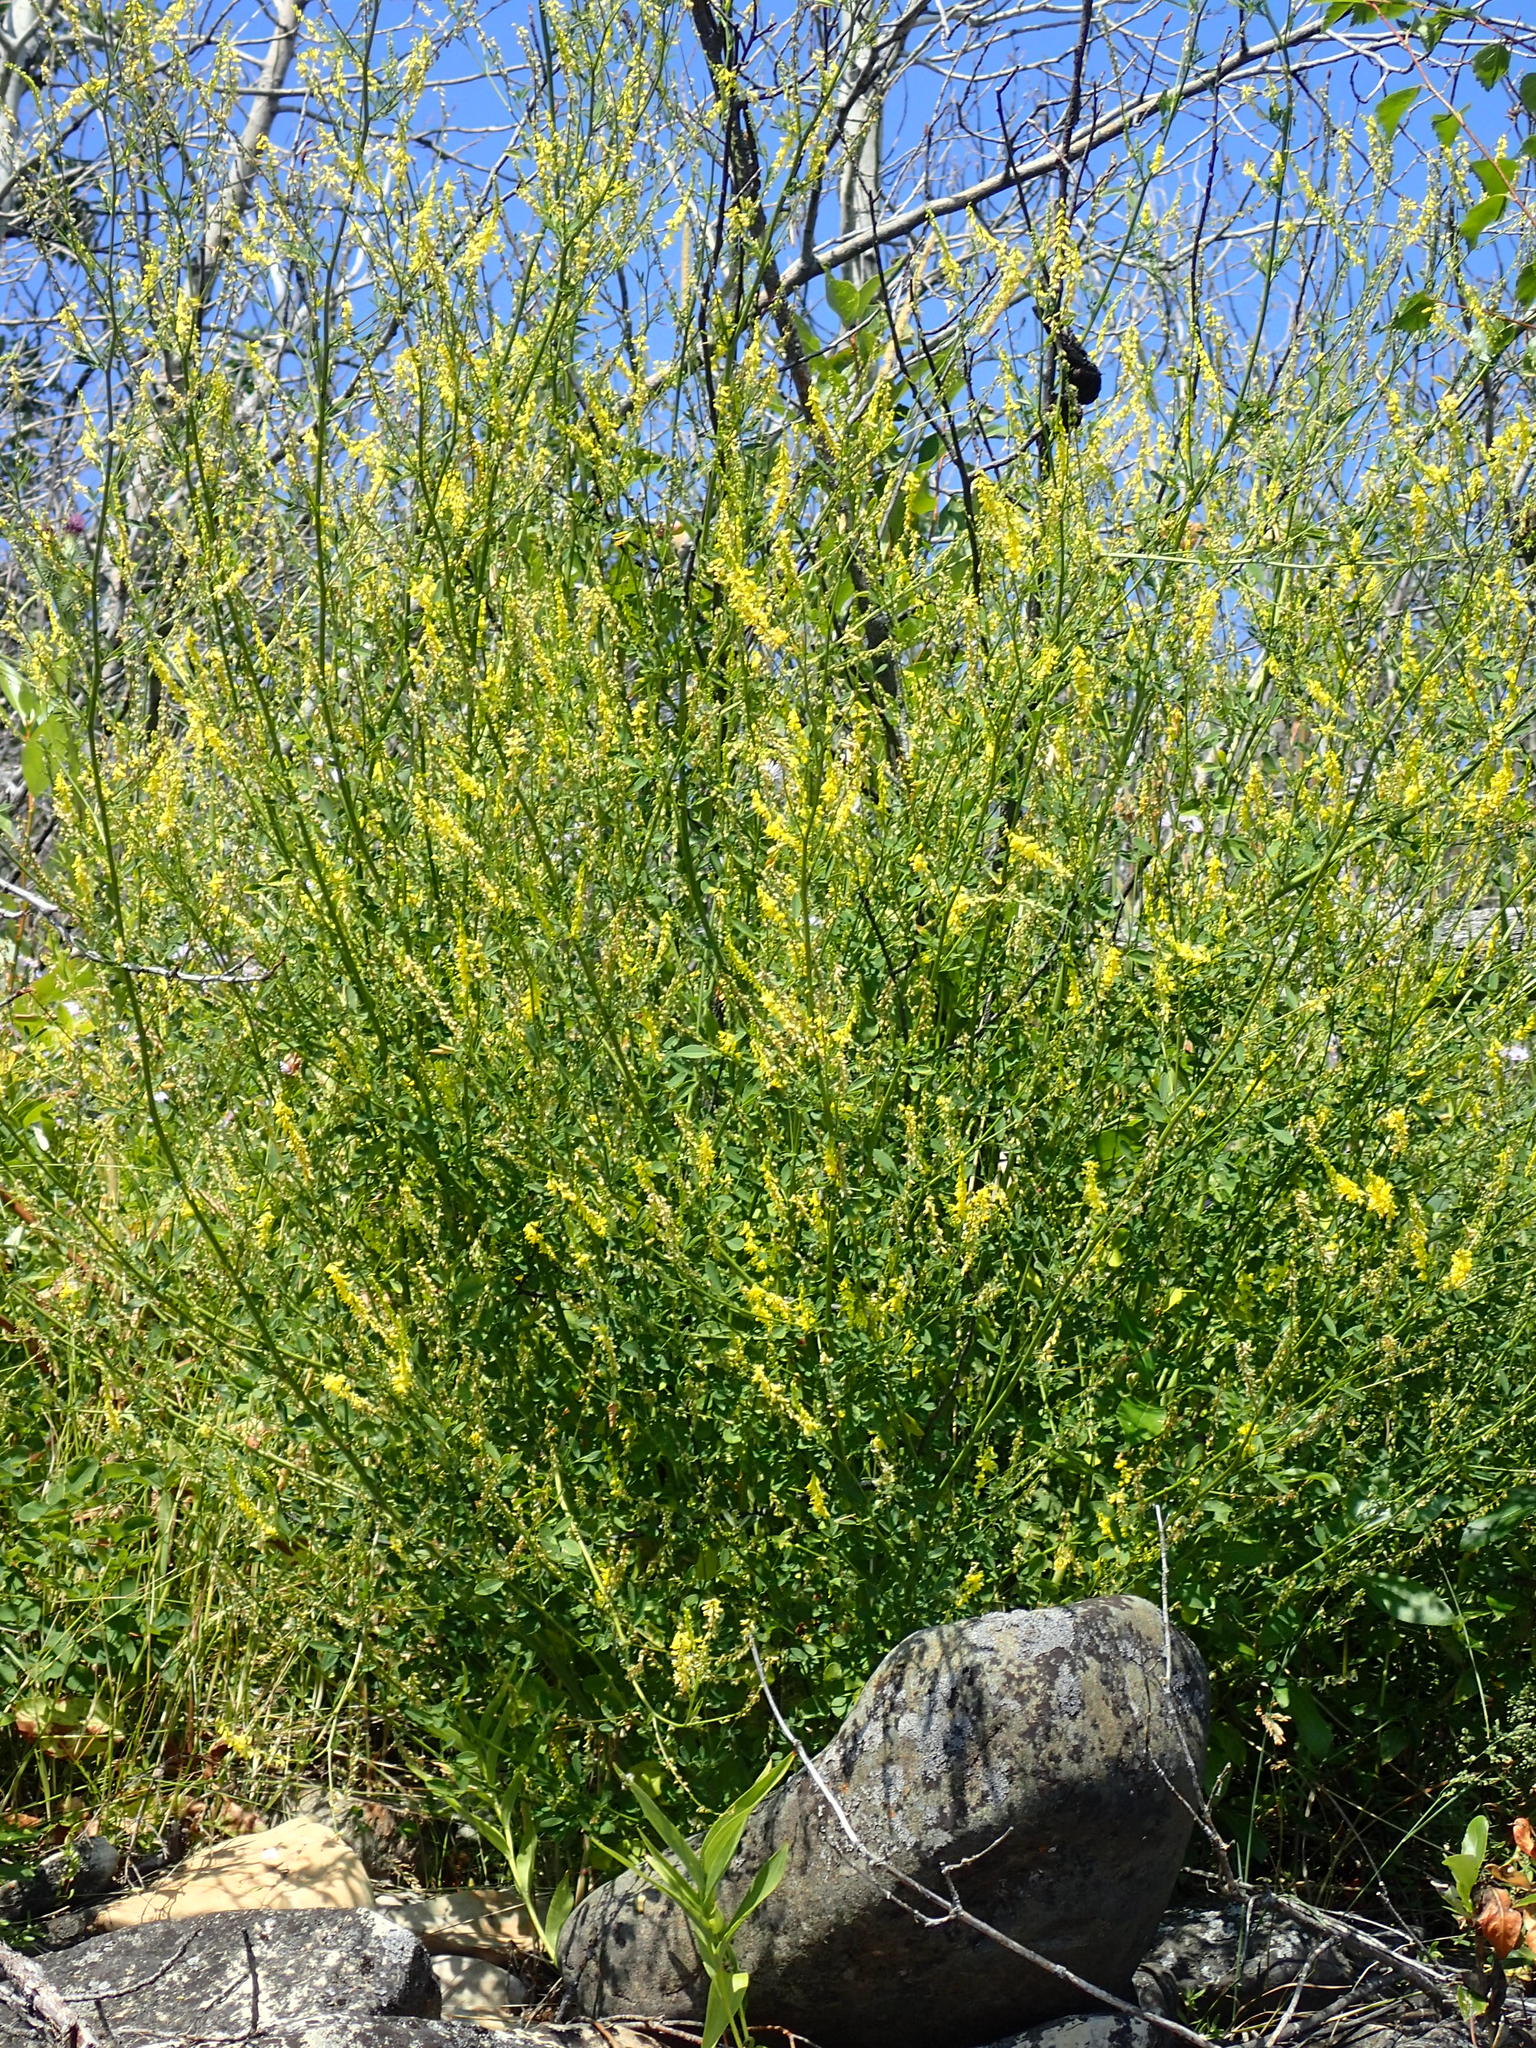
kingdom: Plantae
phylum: Tracheophyta
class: Magnoliopsida
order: Fabales
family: Fabaceae
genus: Melilotus
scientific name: Melilotus officinalis
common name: Sweetclover
